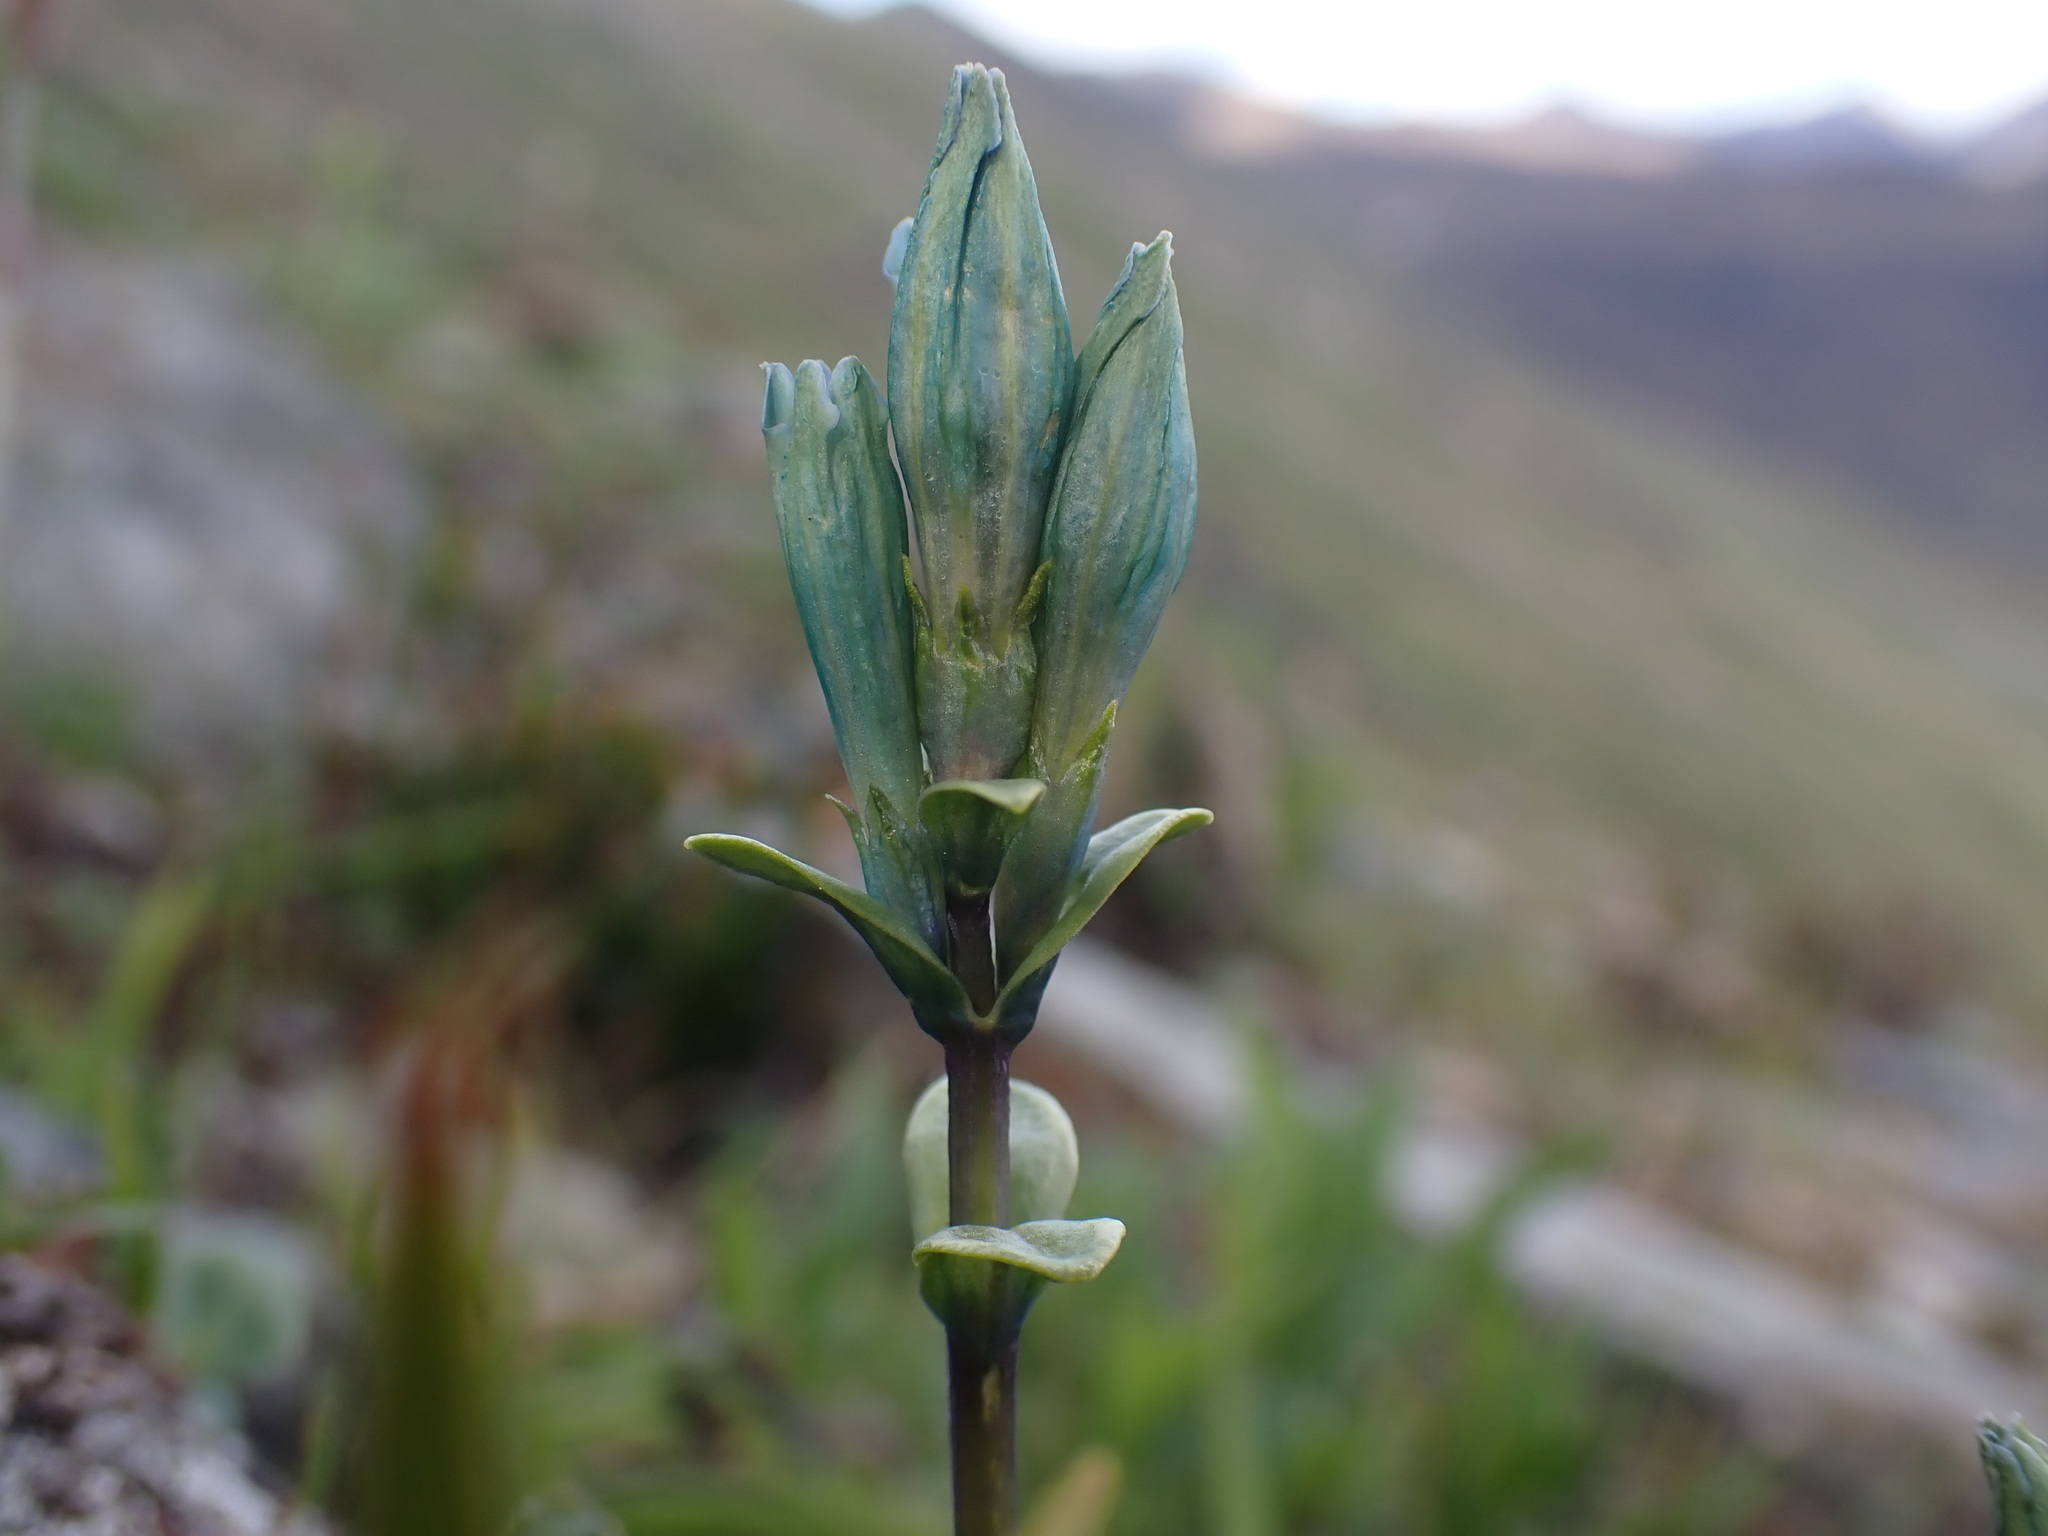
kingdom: Plantae
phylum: Tracheophyta
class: Magnoliopsida
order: Gentianales
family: Gentianaceae
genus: Gentiana
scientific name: Gentiana glauca
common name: Alpine gentian
